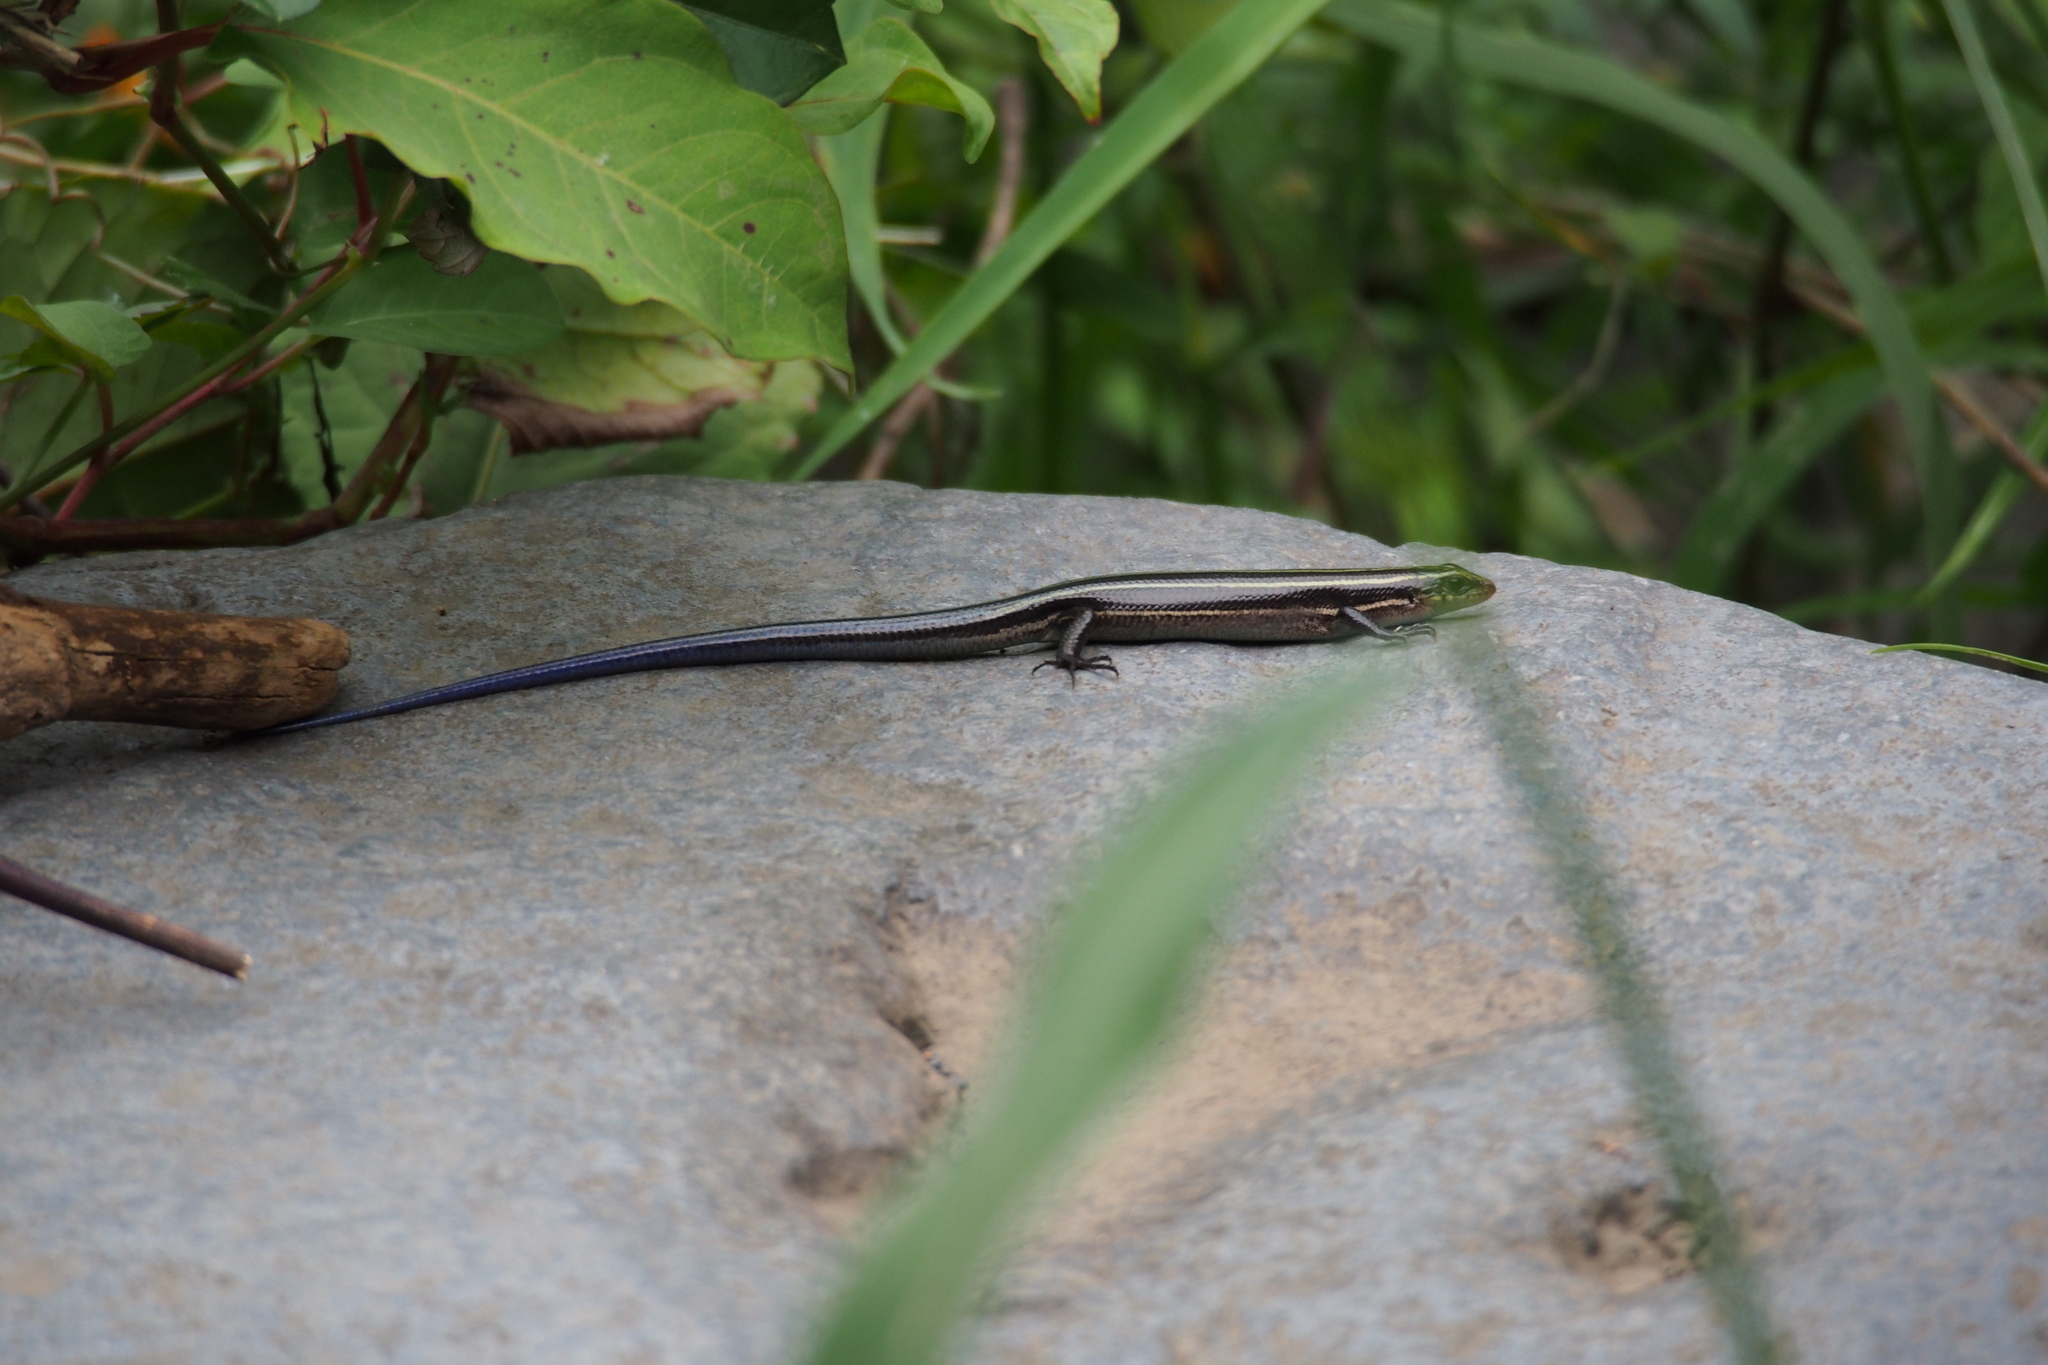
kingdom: Animalia
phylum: Chordata
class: Squamata
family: Scincidae
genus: Plestiodon
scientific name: Plestiodon latiscutatus
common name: Far eastern skink
